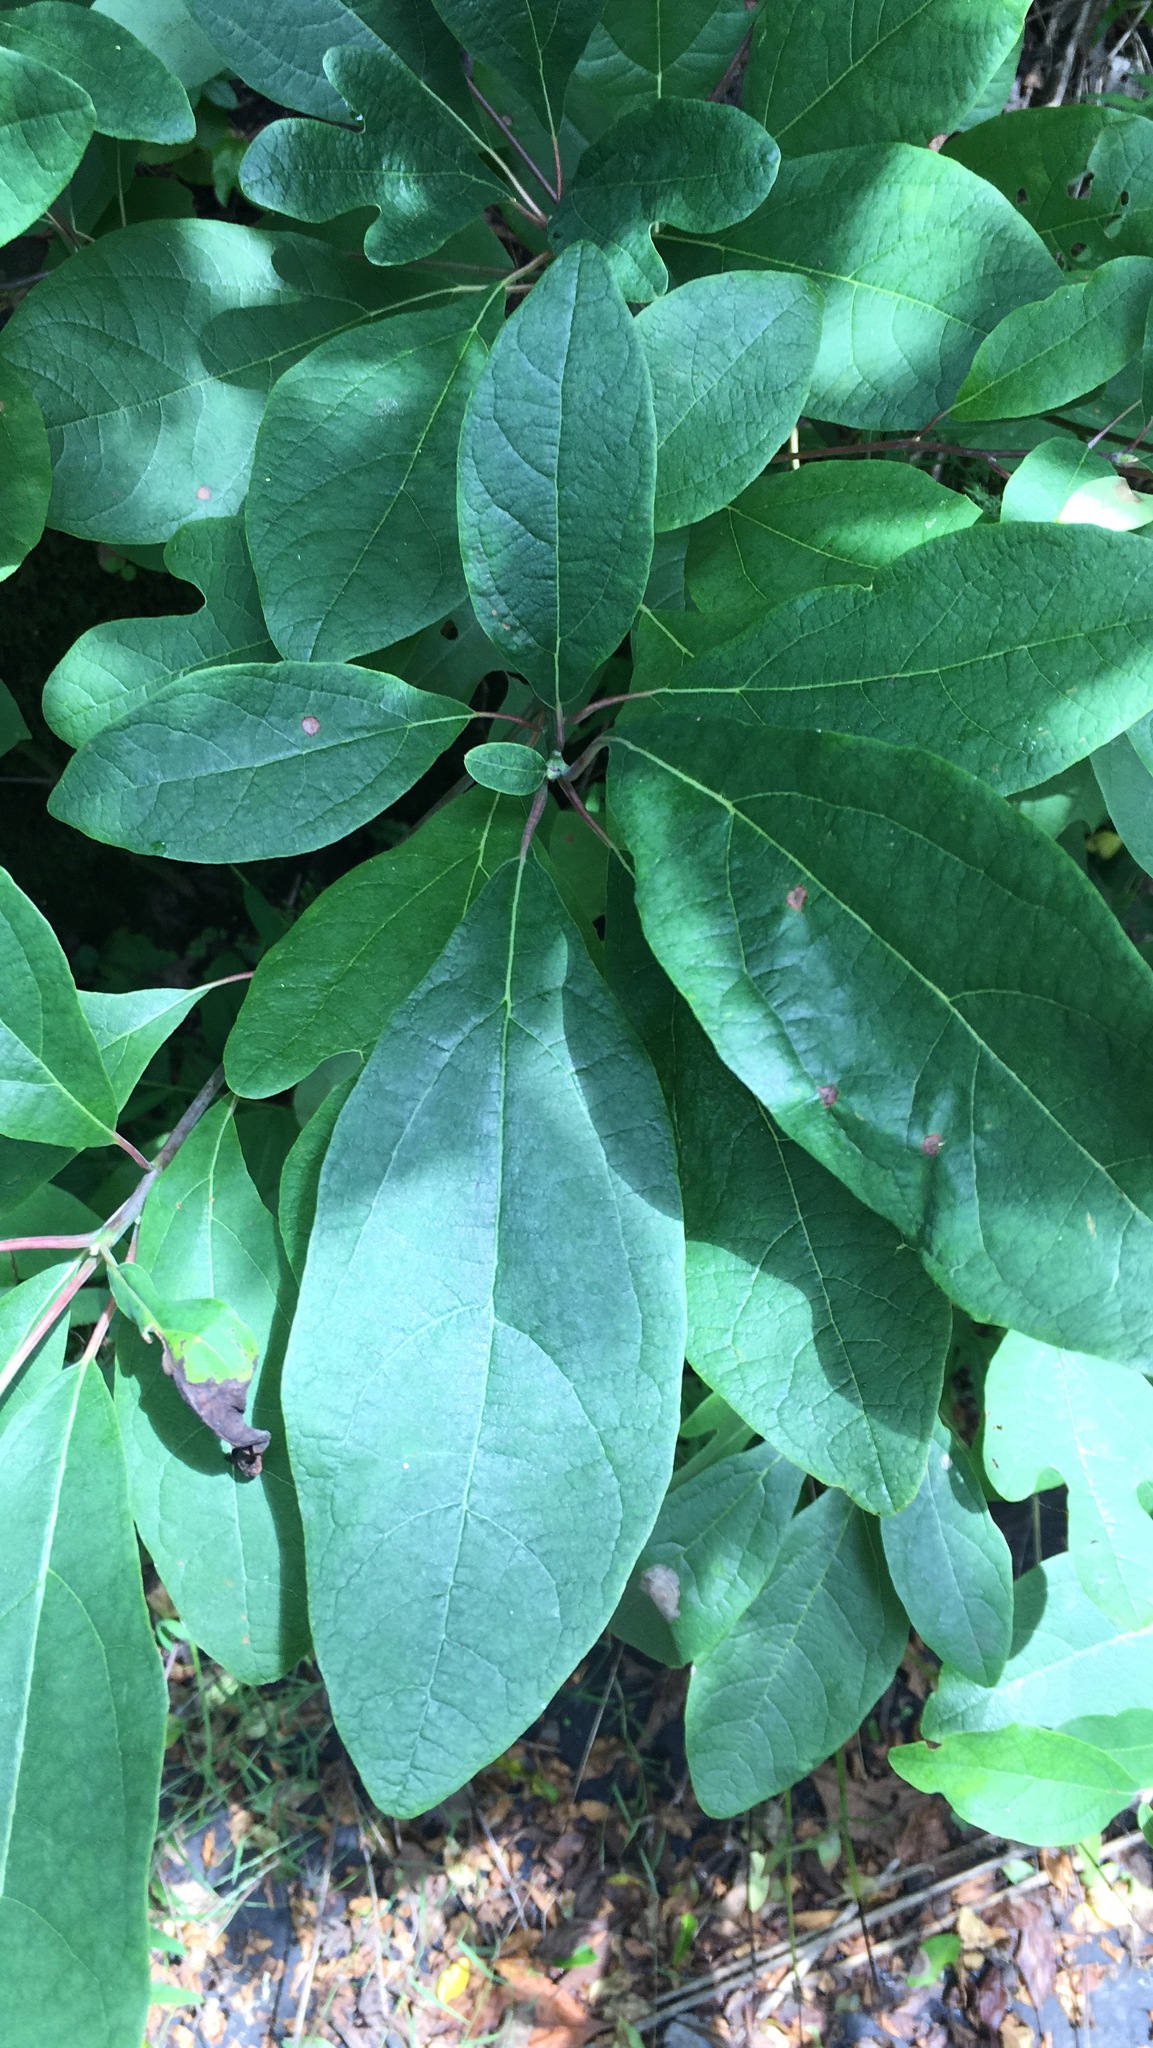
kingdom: Plantae
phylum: Tracheophyta
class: Magnoliopsida
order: Laurales
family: Lauraceae
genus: Sassafras
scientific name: Sassafras albidum
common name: Sassafras
